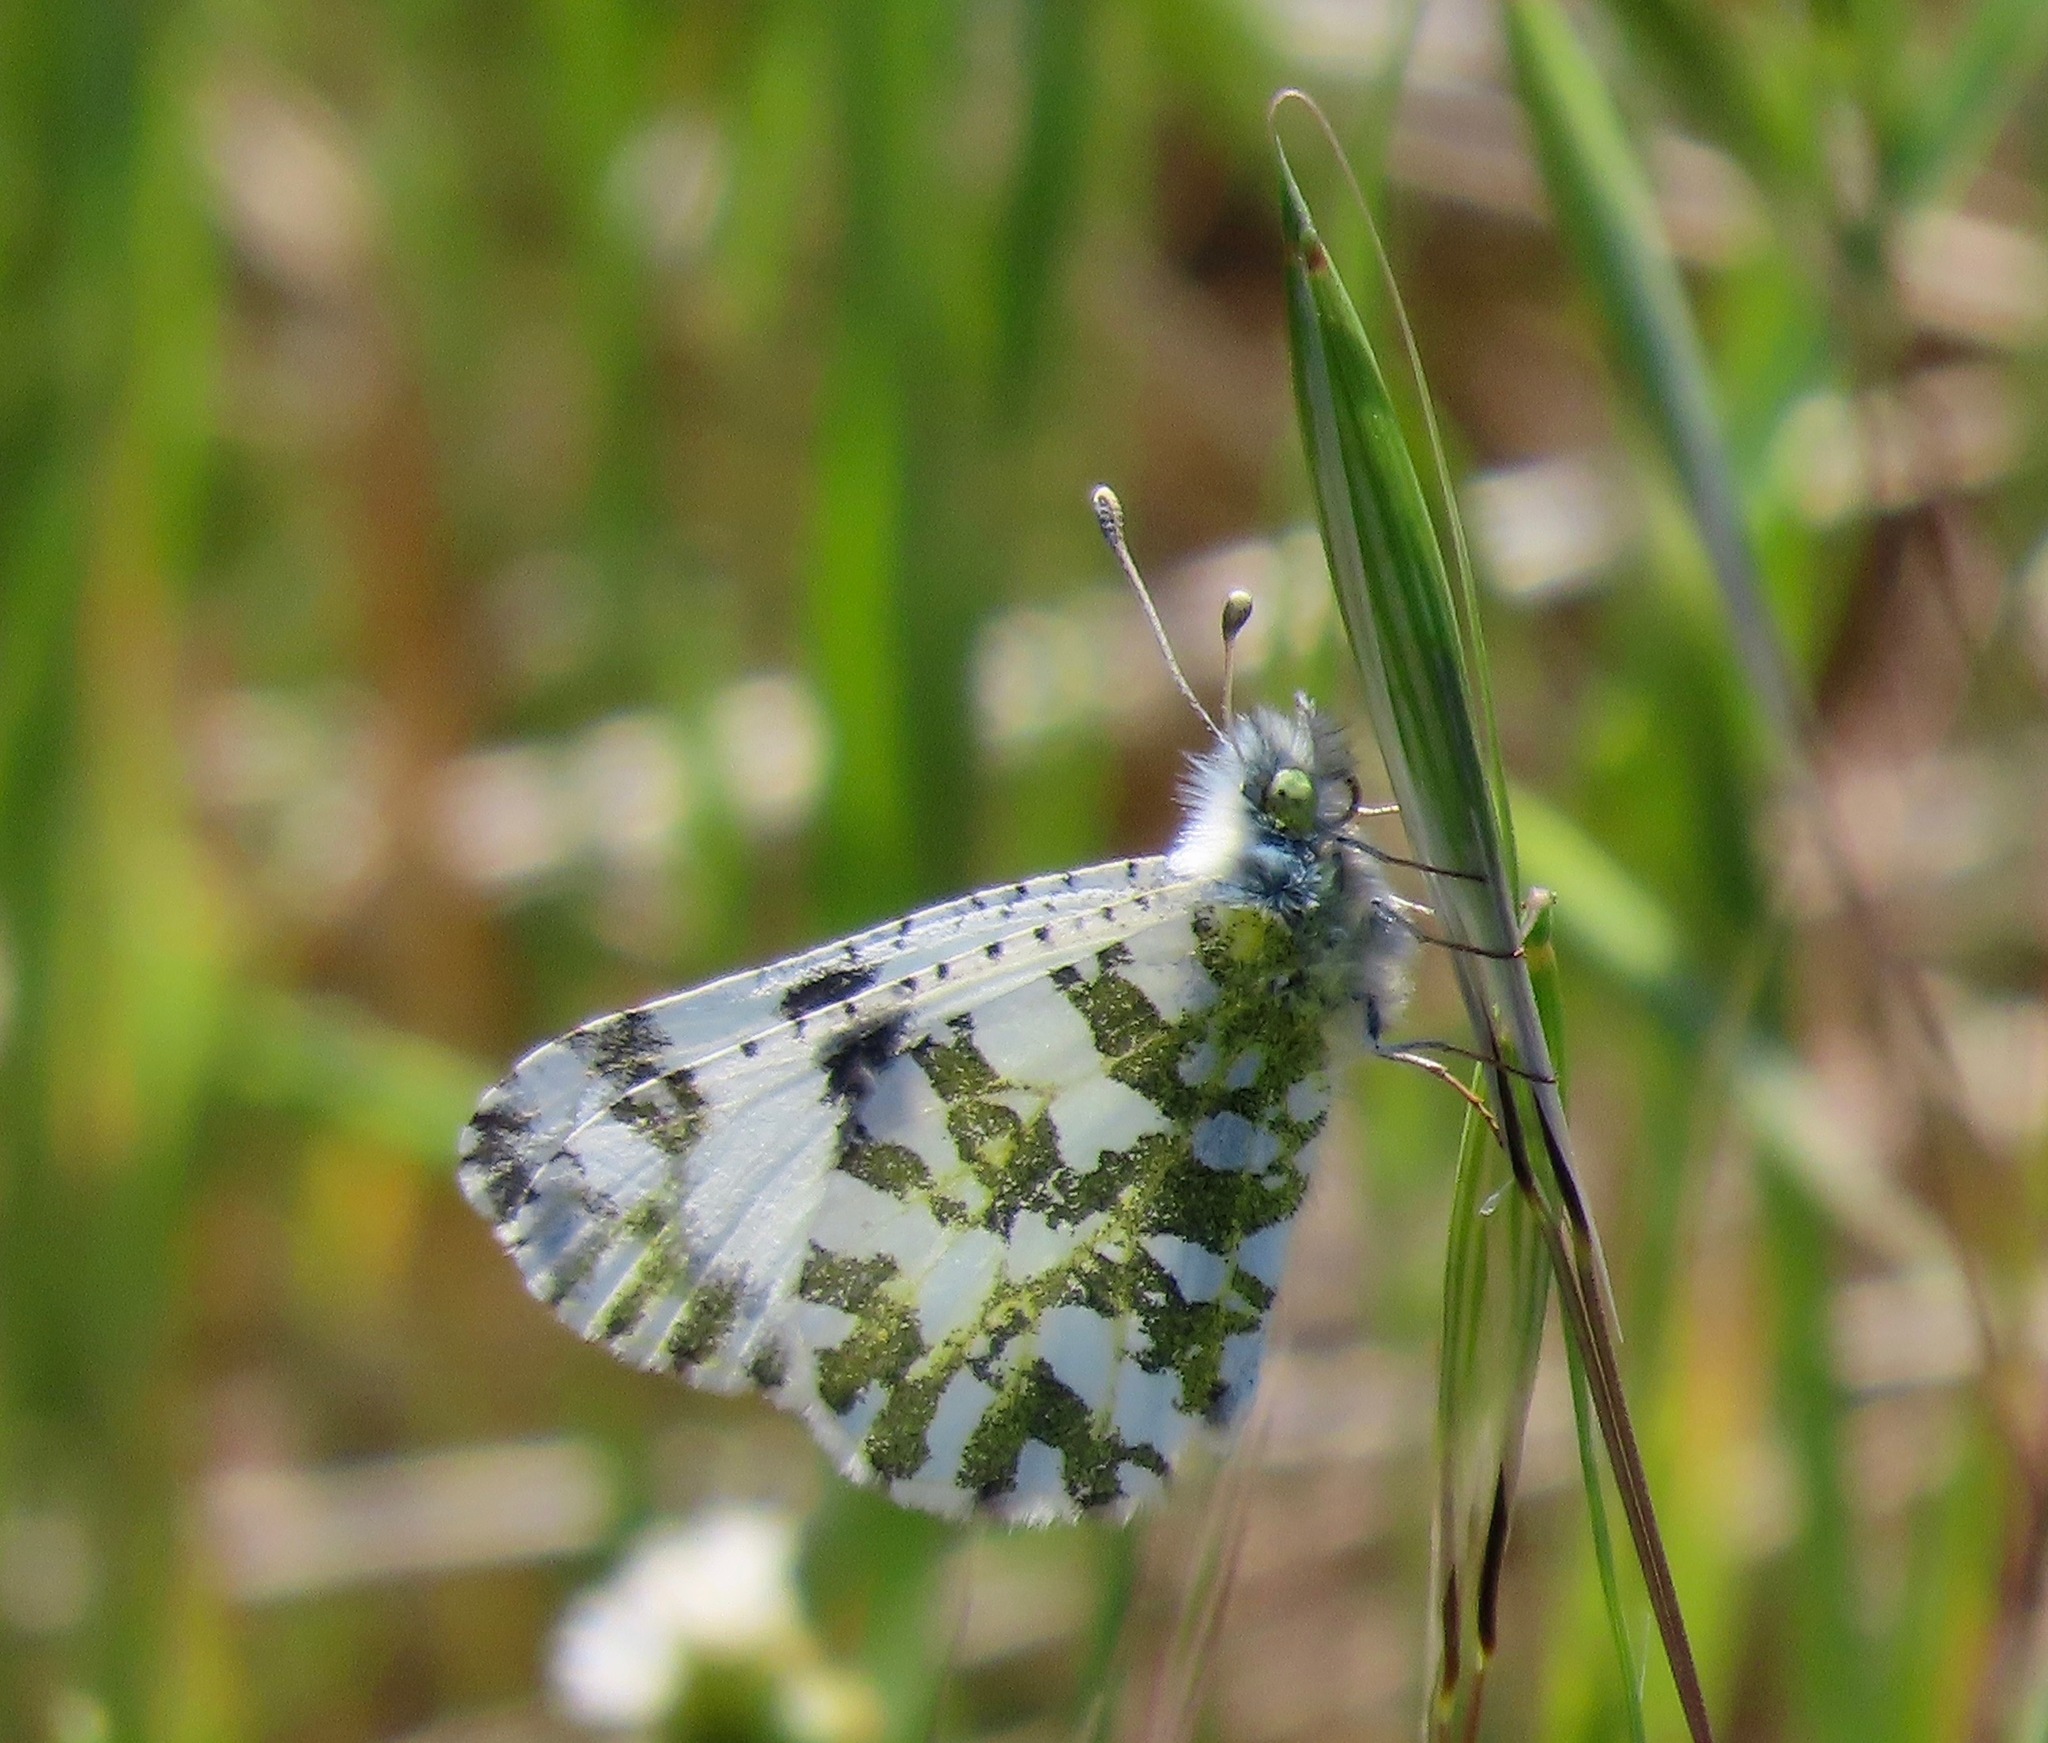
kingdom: Animalia
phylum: Arthropoda
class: Insecta
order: Lepidoptera
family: Pieridae
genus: Euchloe
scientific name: Euchloe hyantis
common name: California marble
